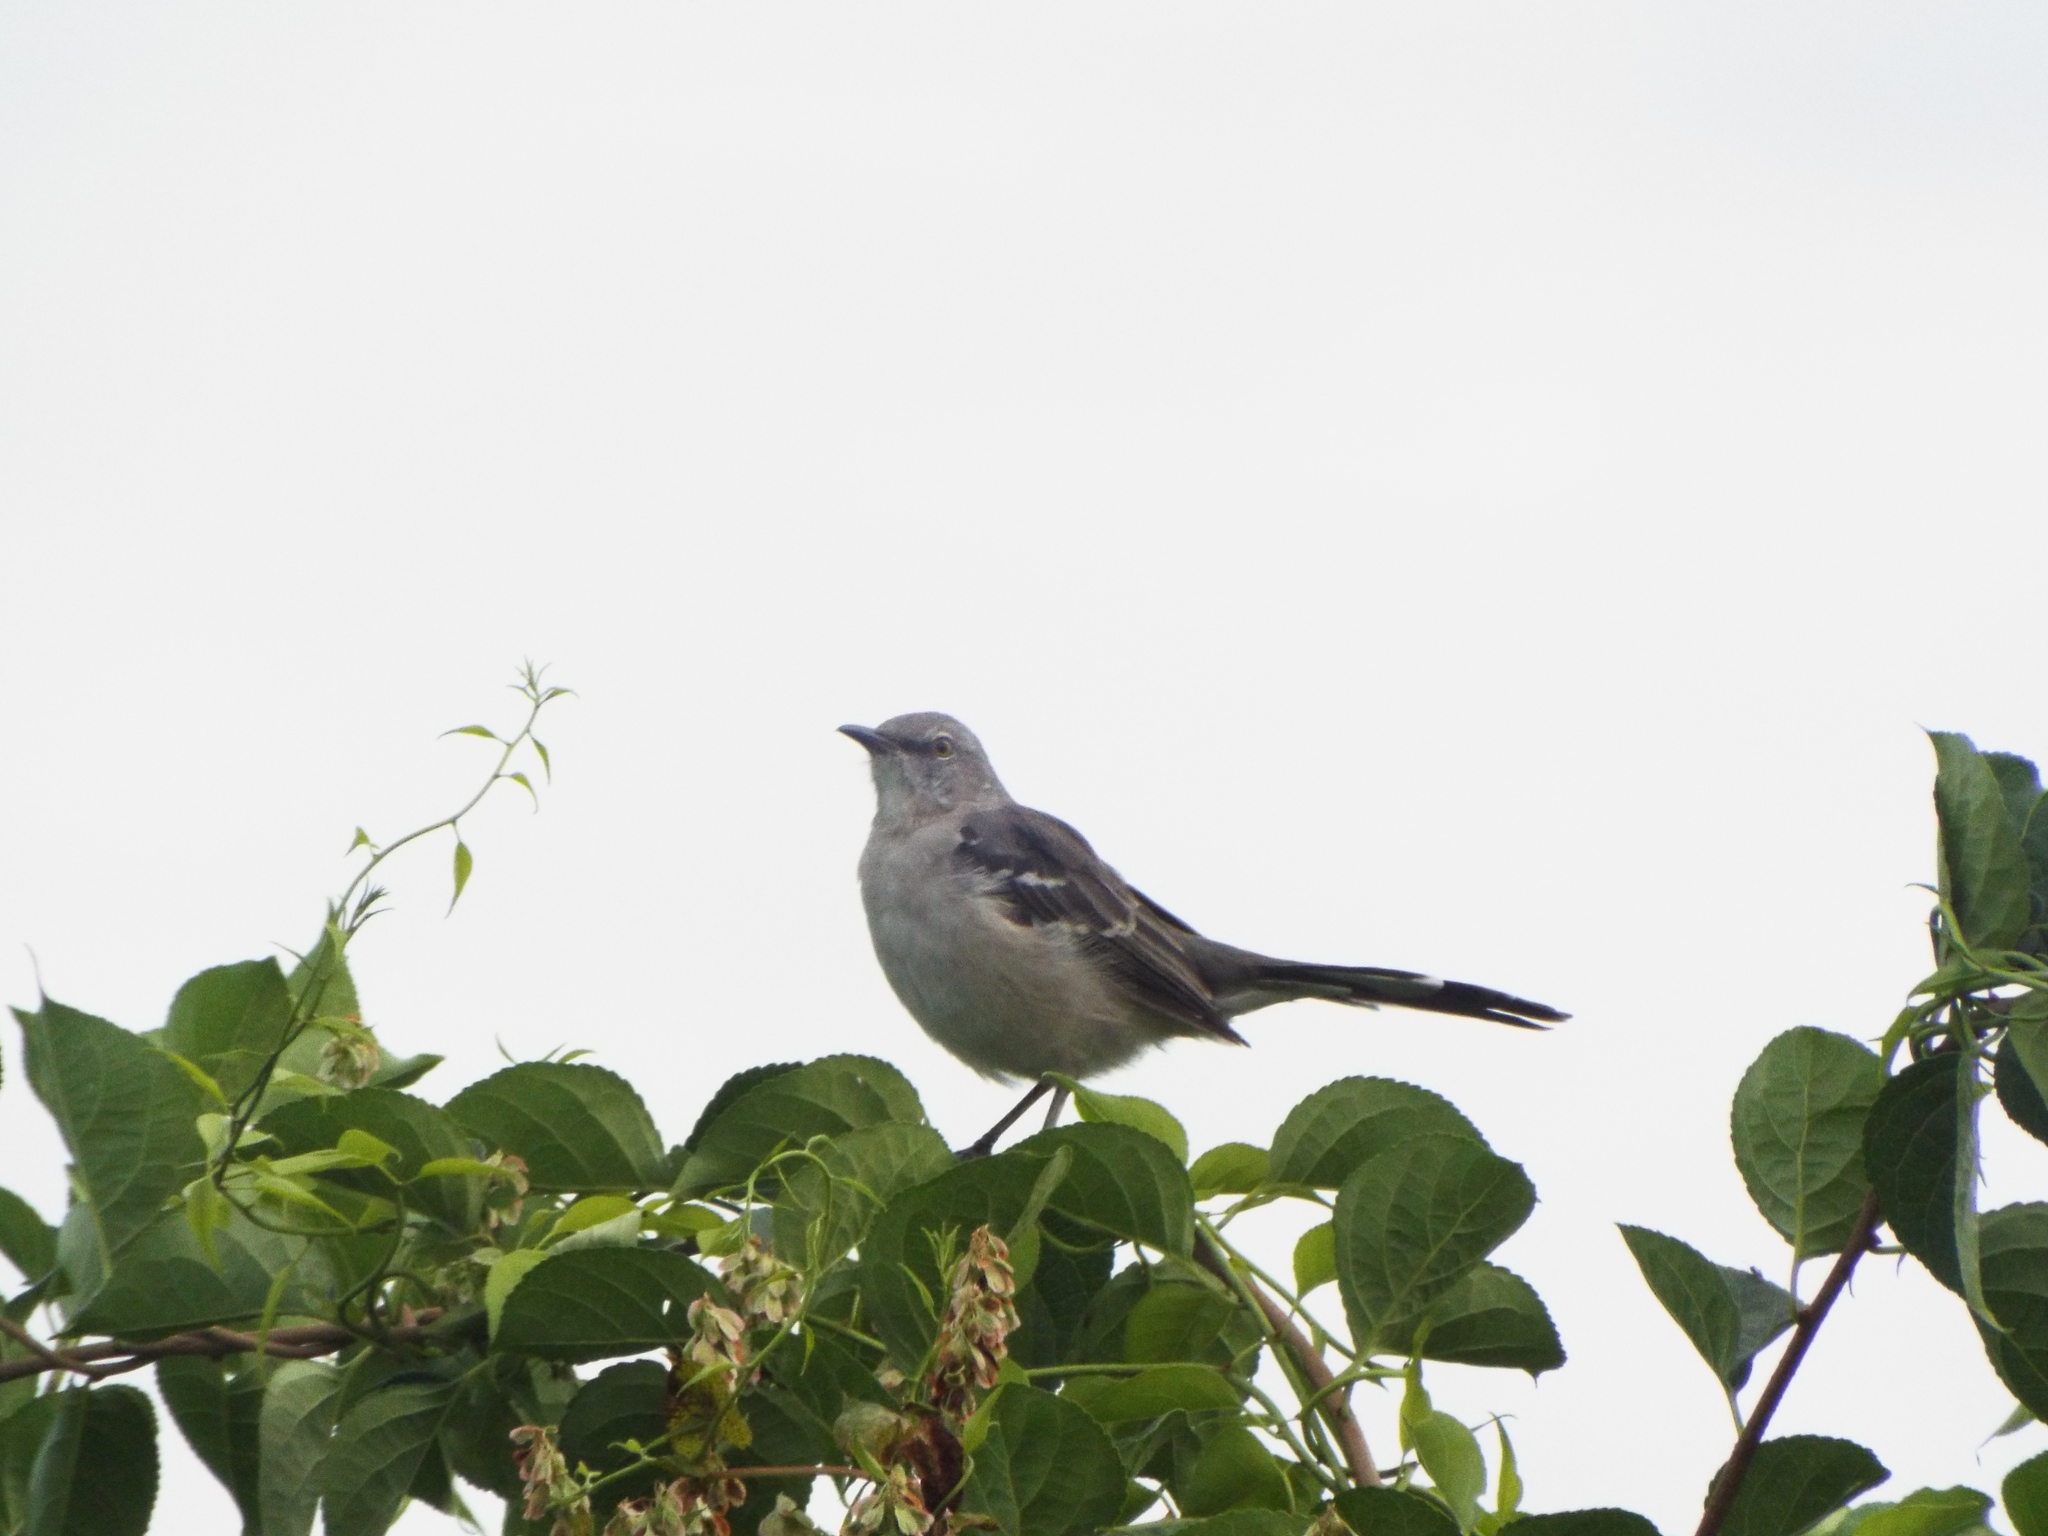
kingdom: Animalia
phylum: Chordata
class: Aves
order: Passeriformes
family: Mimidae
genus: Mimus
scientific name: Mimus polyglottos
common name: Northern mockingbird
